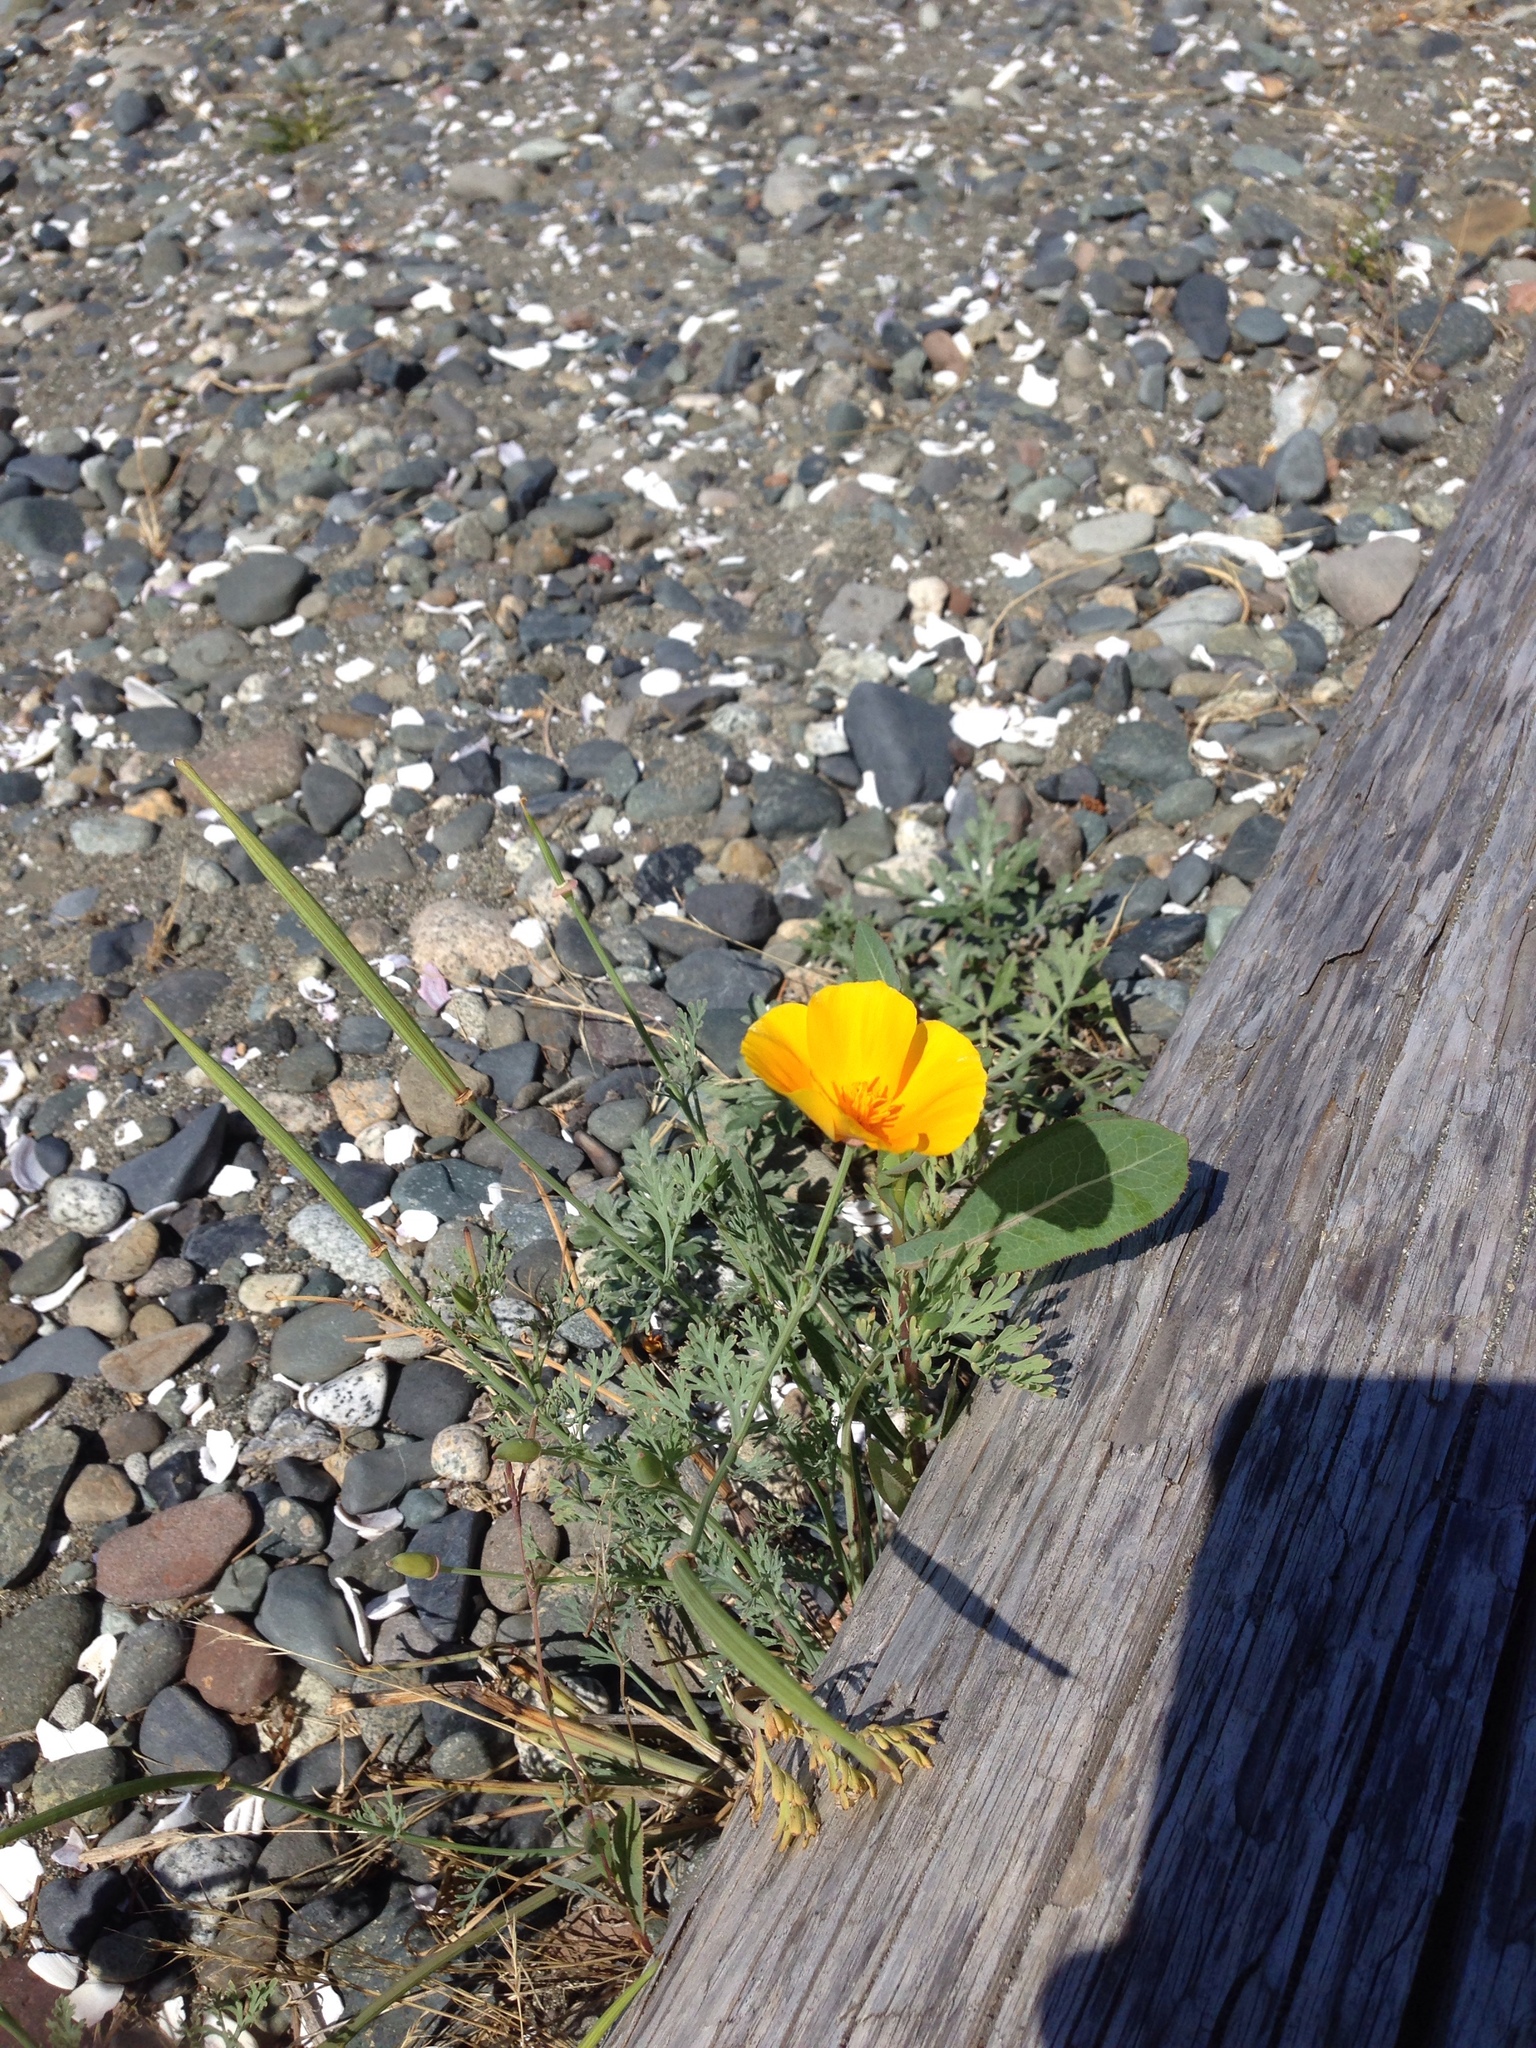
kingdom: Plantae
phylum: Tracheophyta
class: Magnoliopsida
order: Ranunculales
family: Papaveraceae
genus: Eschscholzia
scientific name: Eschscholzia californica
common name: California poppy
